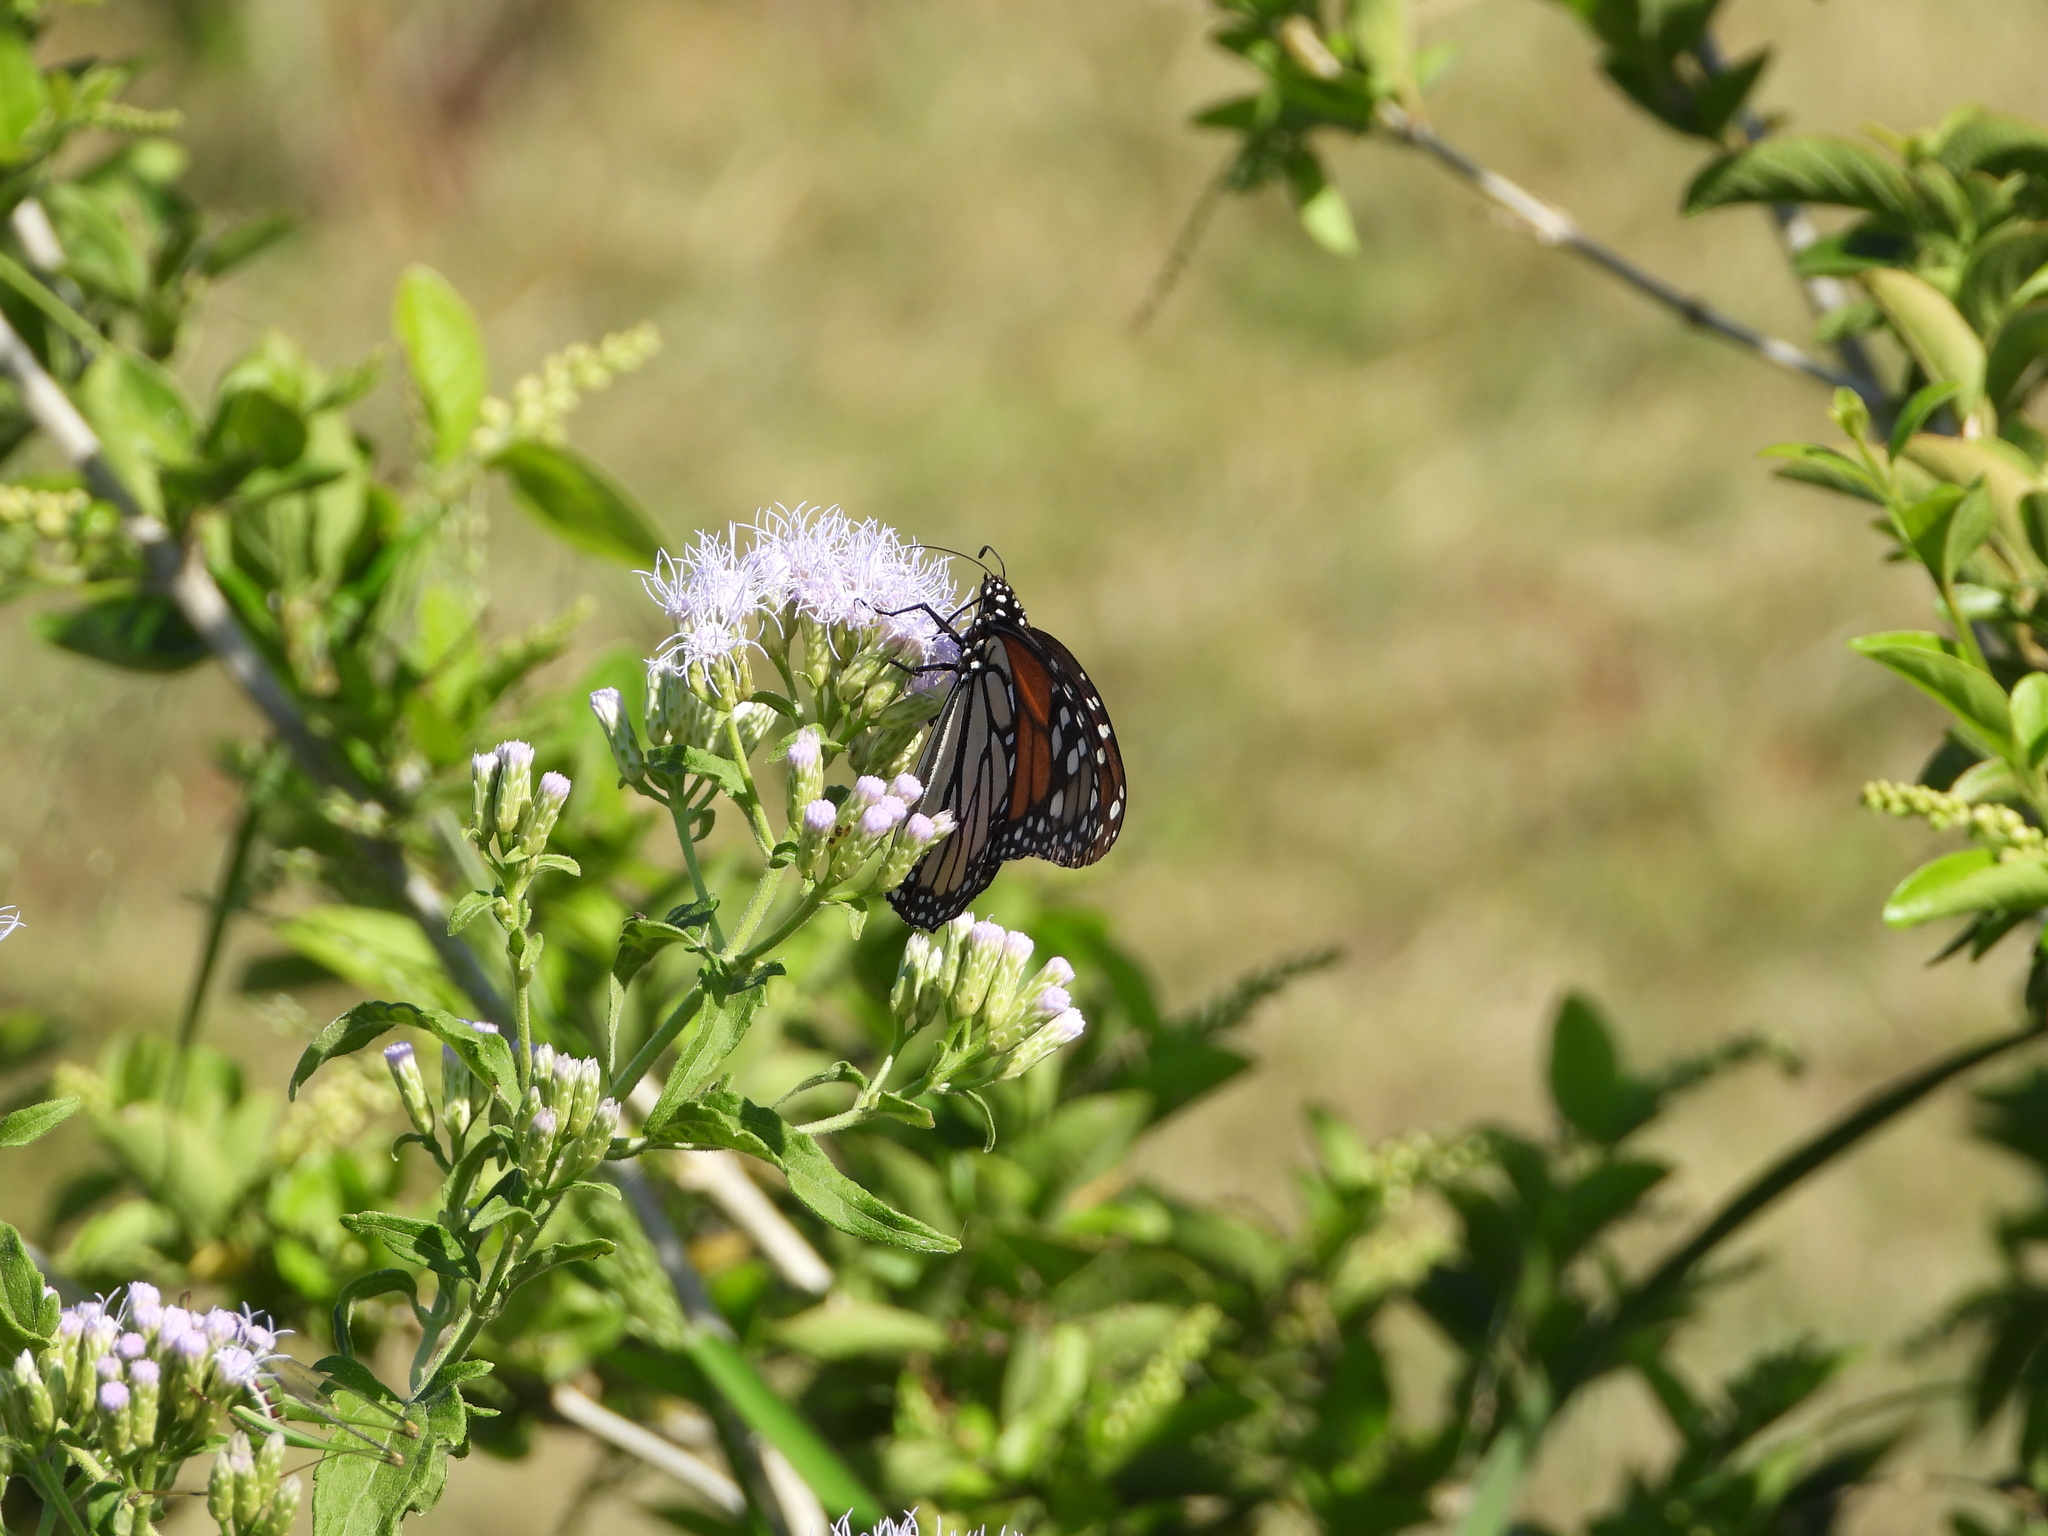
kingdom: Animalia
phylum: Arthropoda
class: Insecta
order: Lepidoptera
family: Nymphalidae
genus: Danaus
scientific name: Danaus plexippus
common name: Monarch
